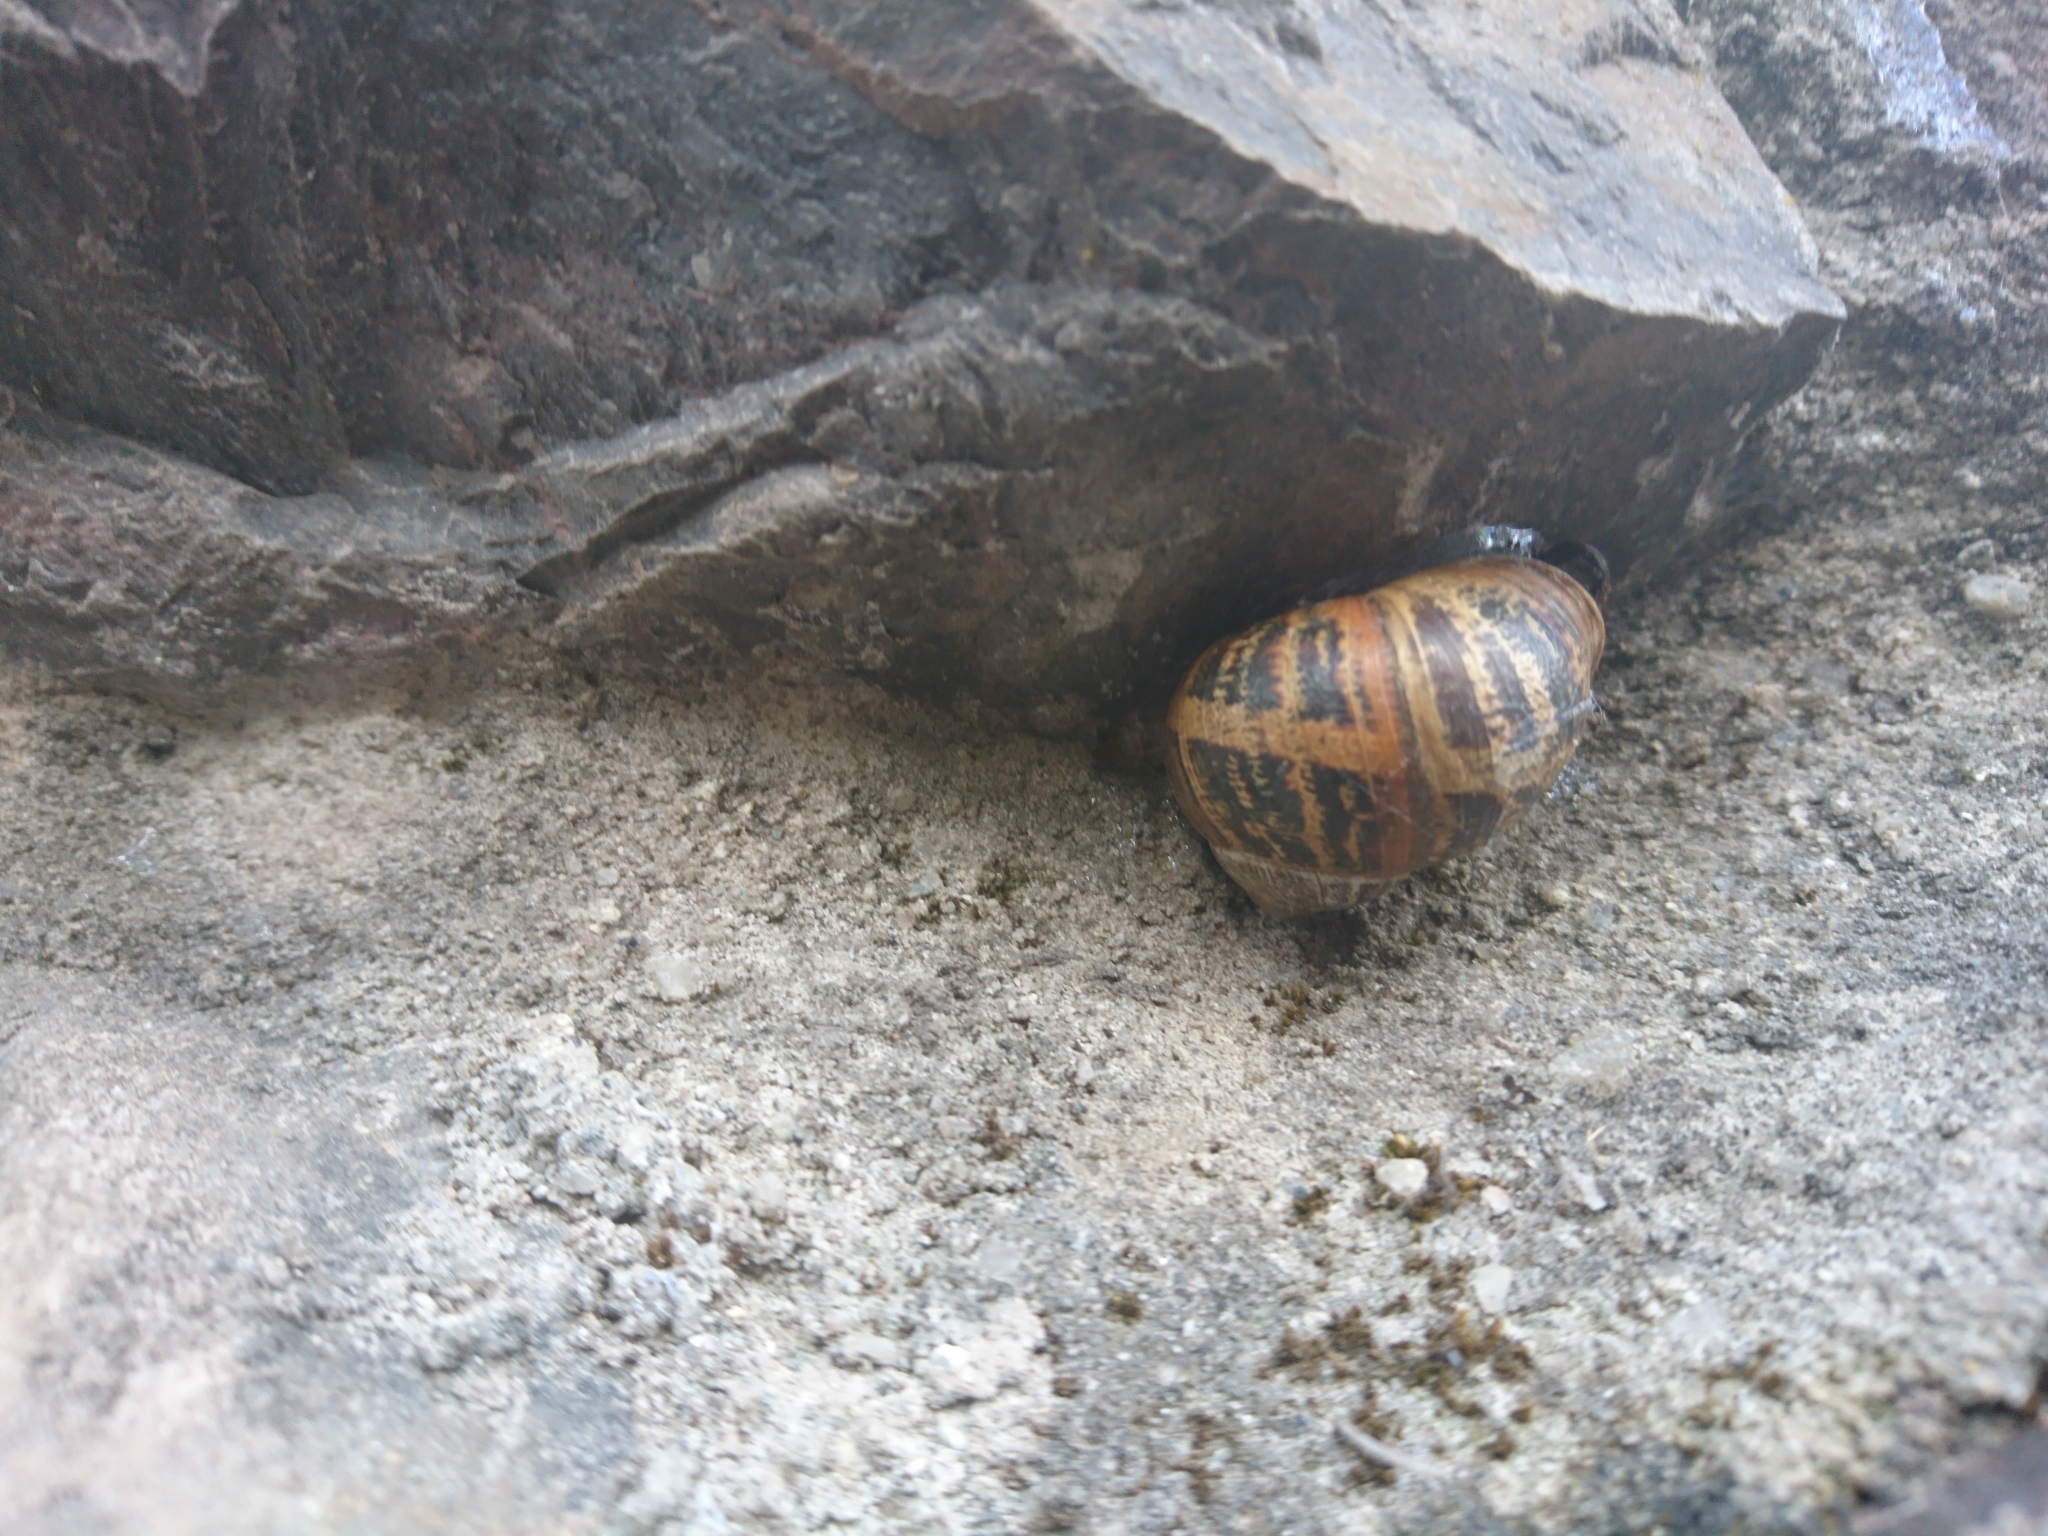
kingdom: Animalia
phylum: Mollusca
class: Gastropoda
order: Stylommatophora
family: Helicidae
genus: Cornu
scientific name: Cornu aspersum
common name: Brown garden snail
